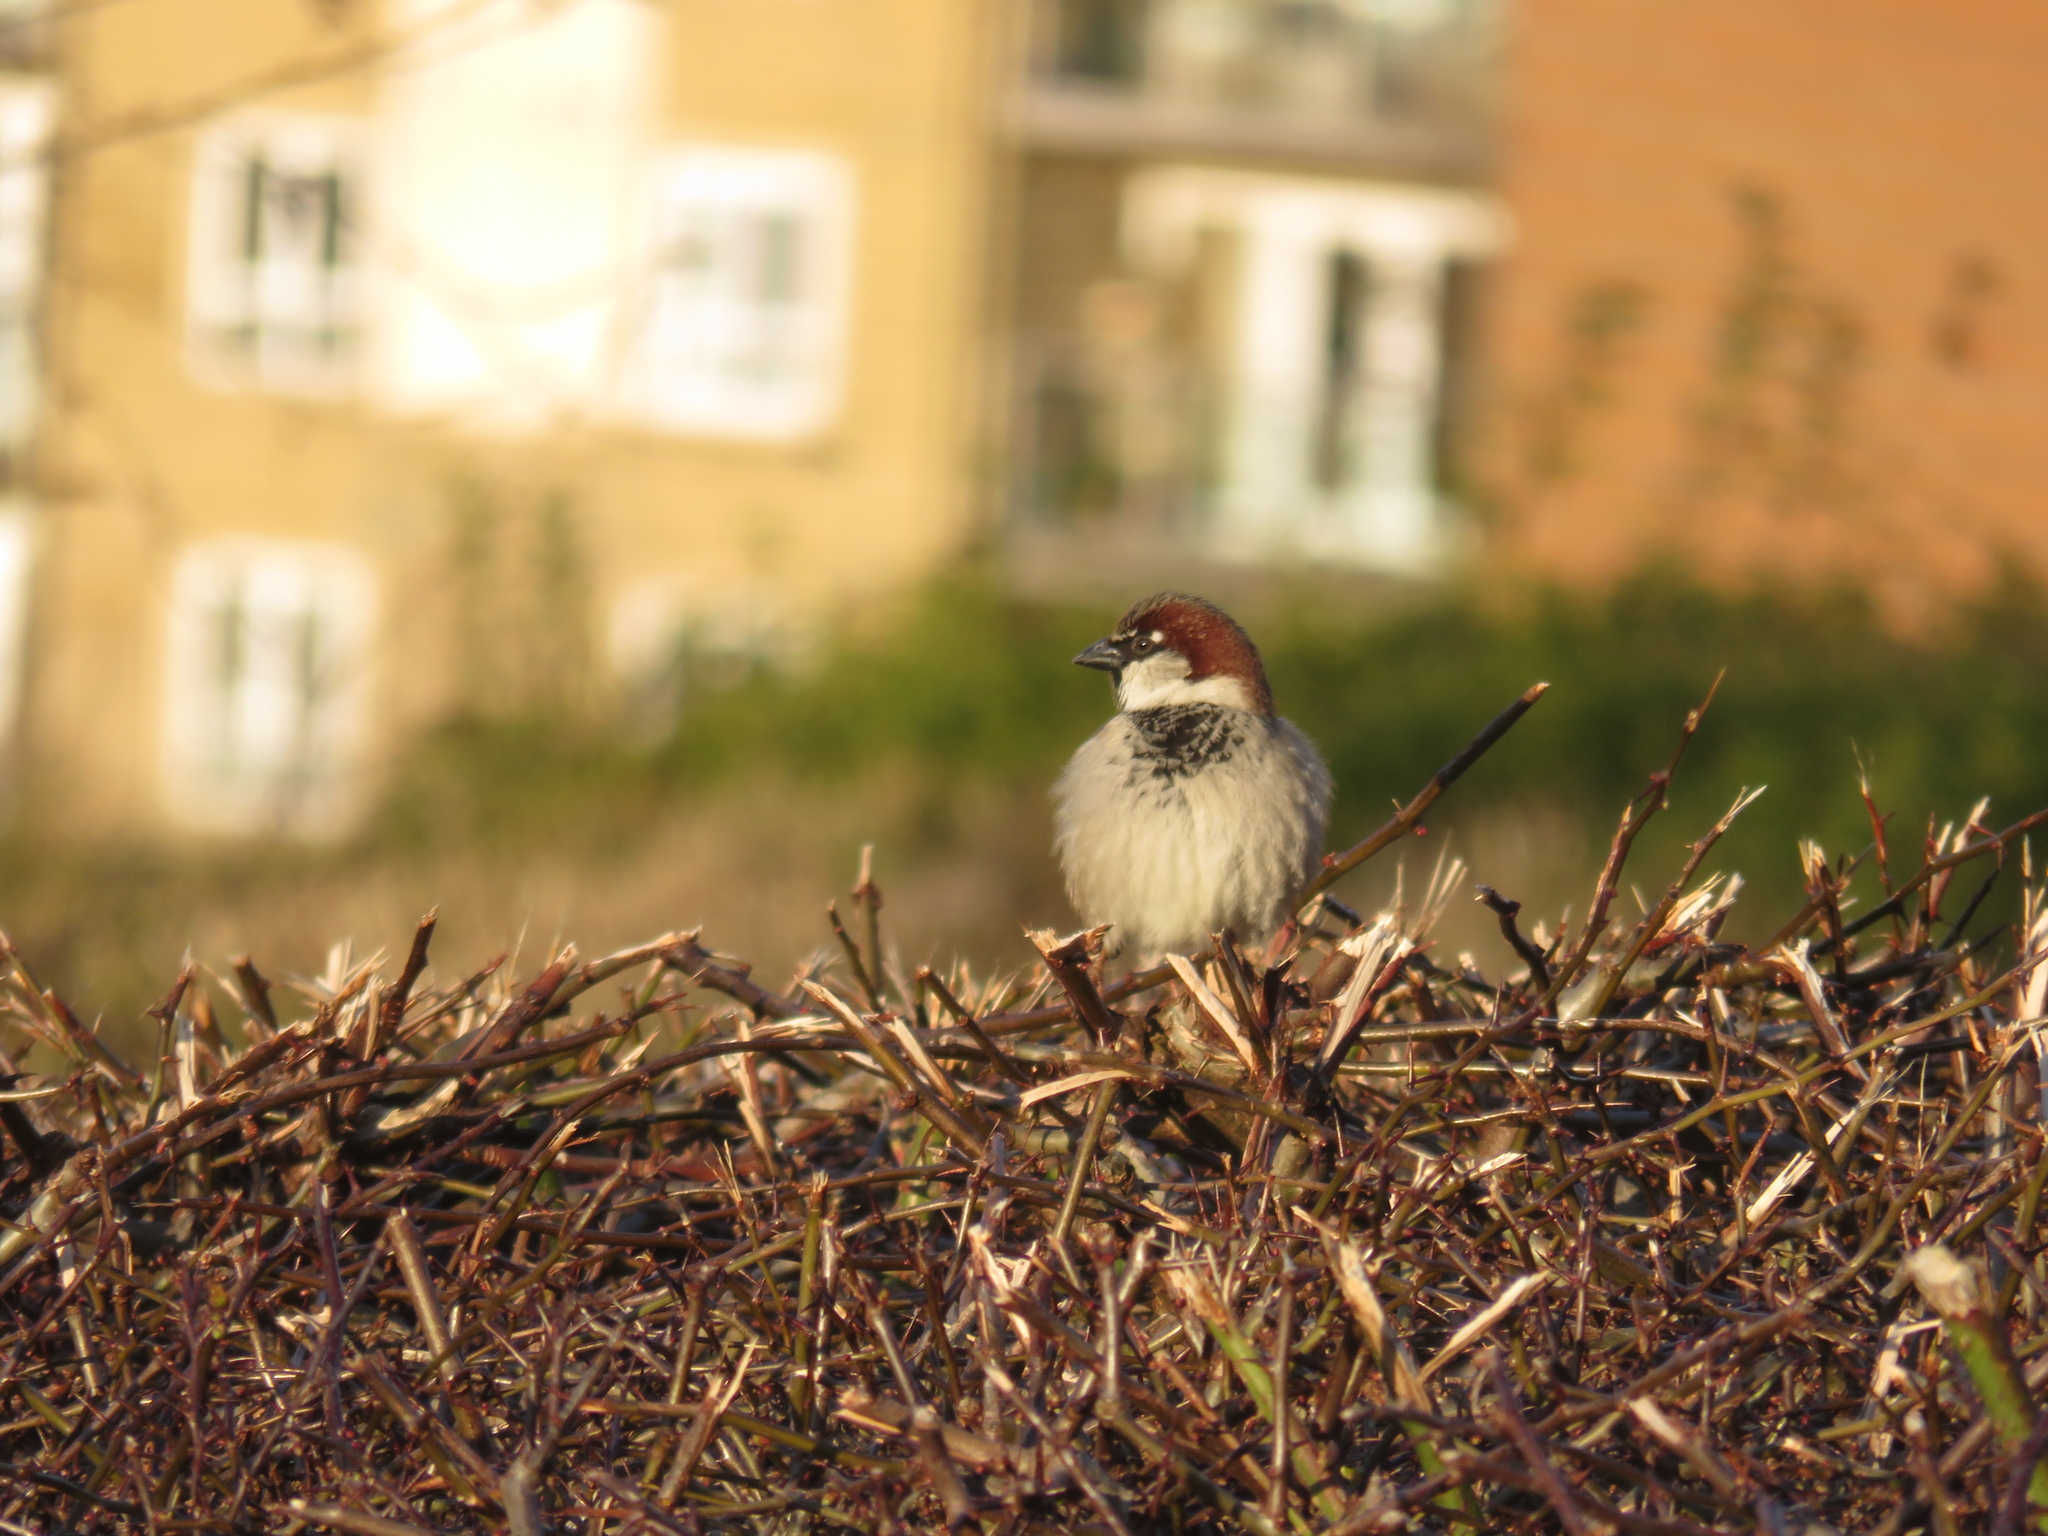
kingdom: Animalia
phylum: Chordata
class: Aves
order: Passeriformes
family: Passeridae
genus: Passer
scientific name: Passer domesticus
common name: House sparrow
